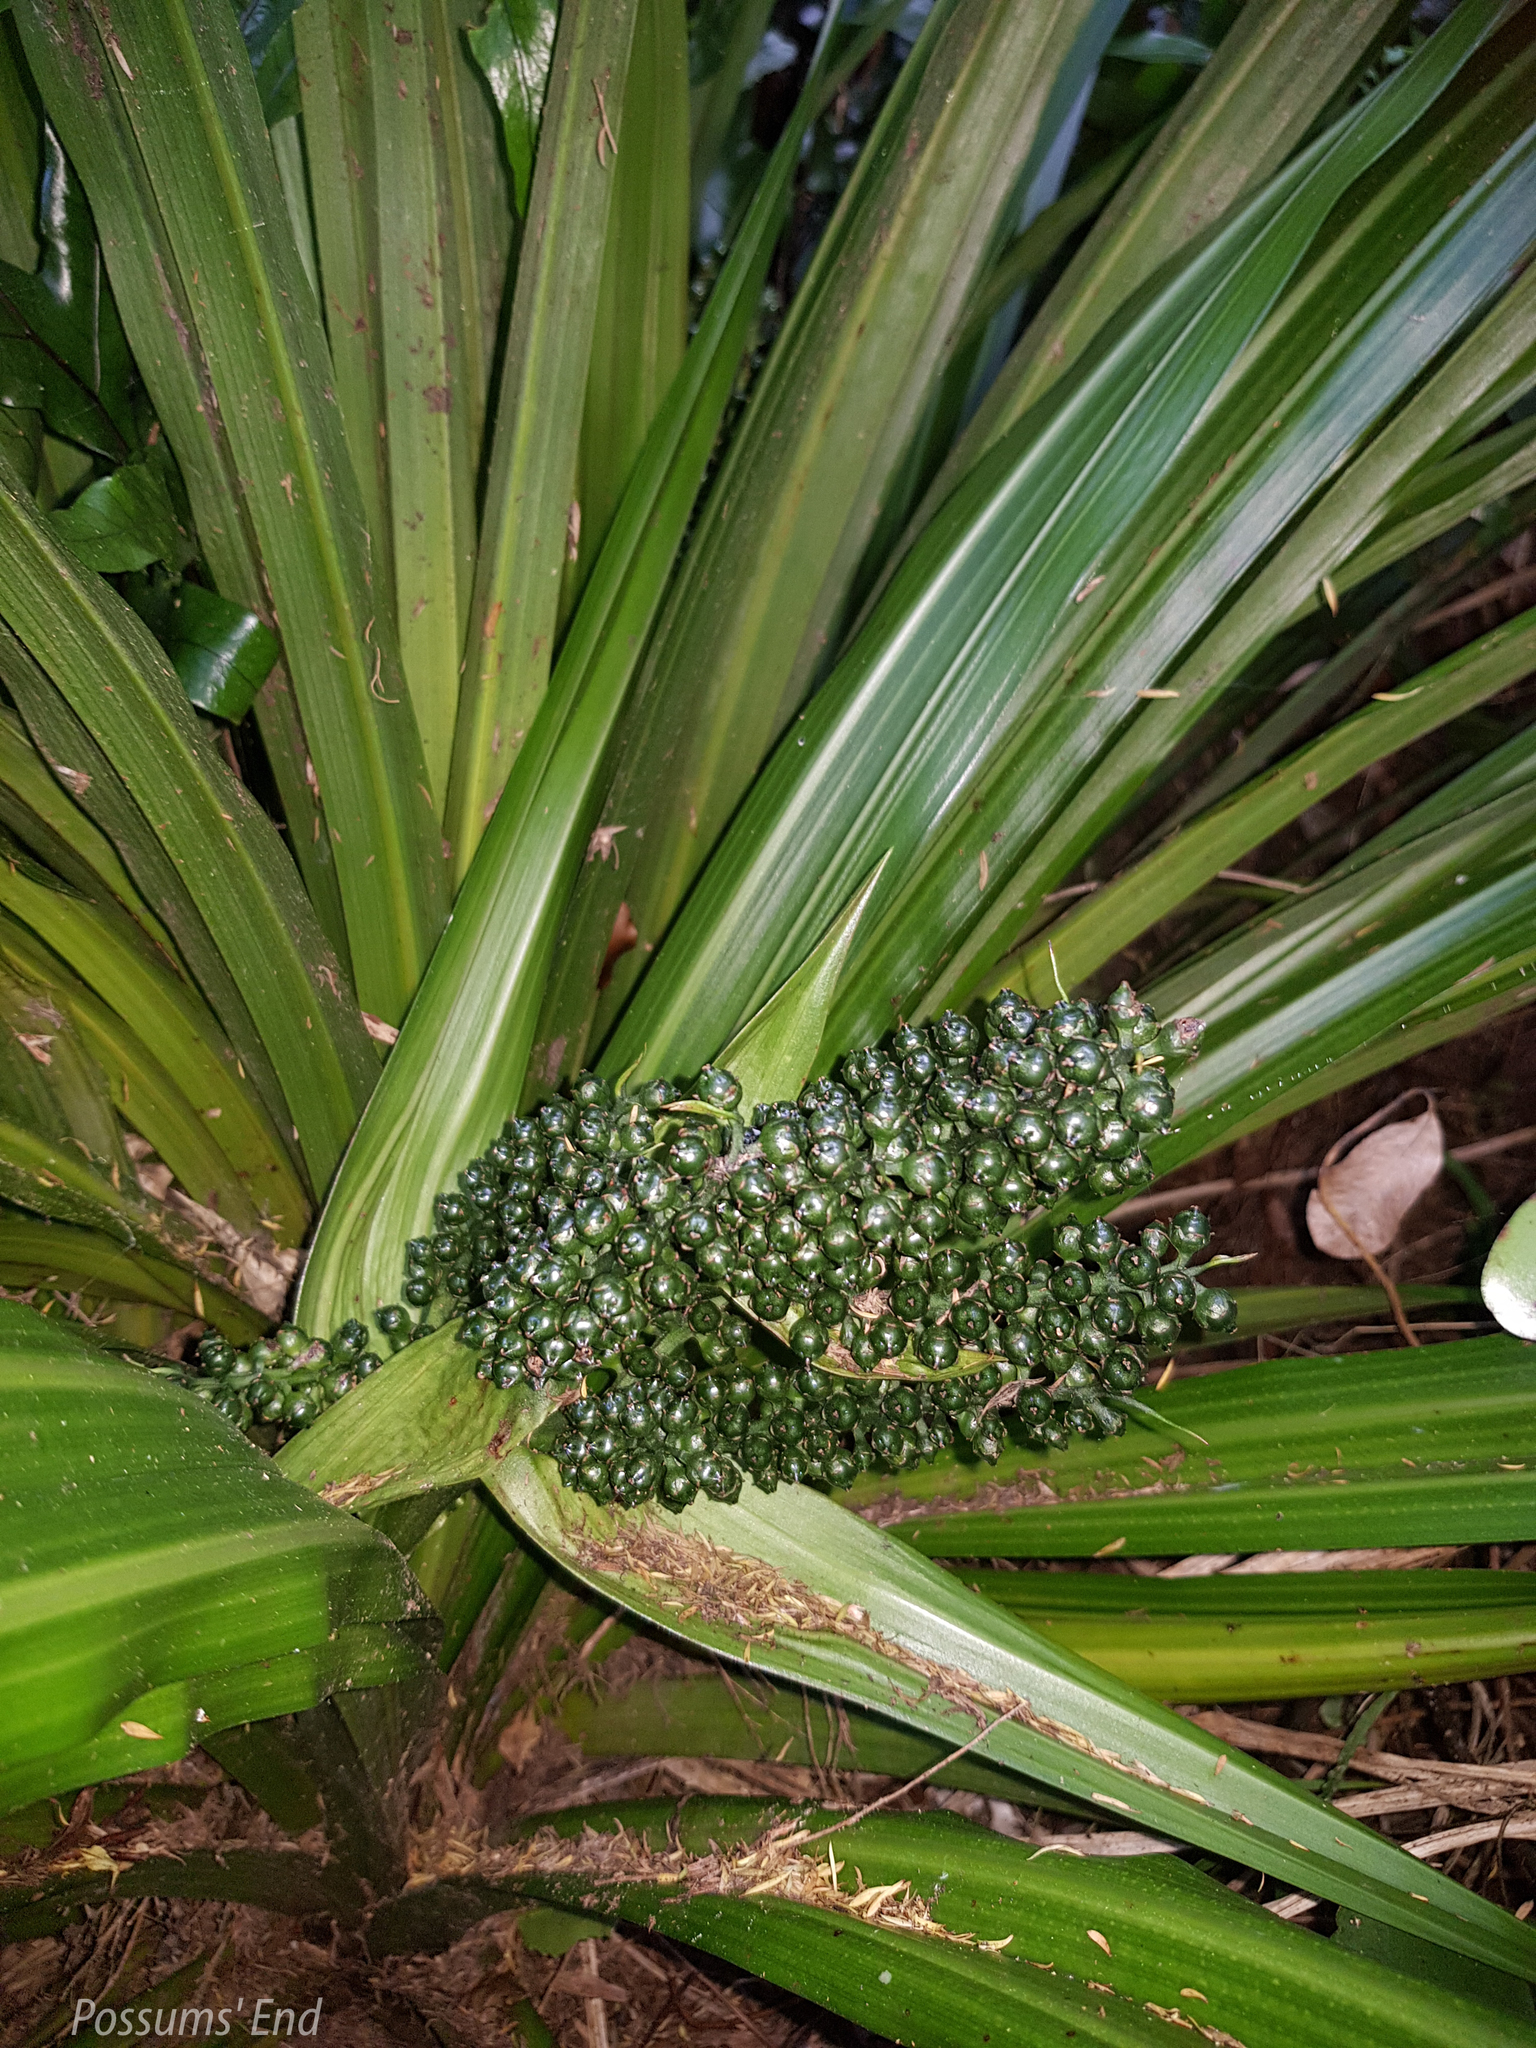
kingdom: Plantae
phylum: Tracheophyta
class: Liliopsida
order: Asparagales
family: Asteliaceae
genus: Astelia
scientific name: Astelia fragrans
